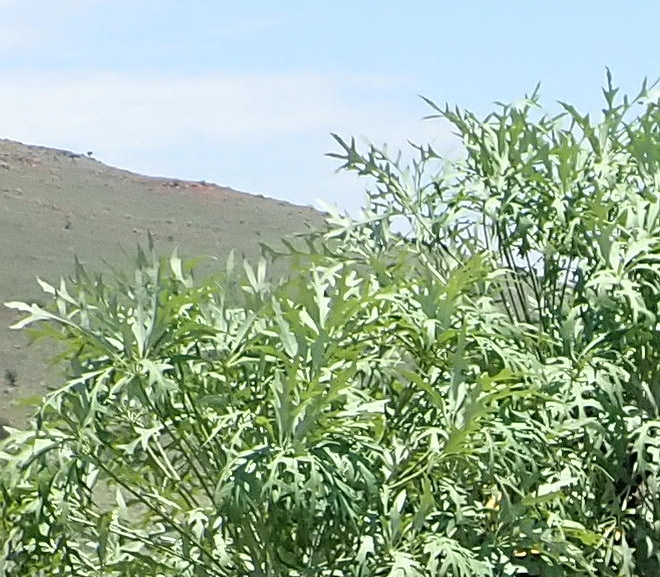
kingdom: Plantae
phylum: Tracheophyta
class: Magnoliopsida
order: Apiales
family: Araliaceae
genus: Cussonia
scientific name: Cussonia paniculata
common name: Cabbagetree
